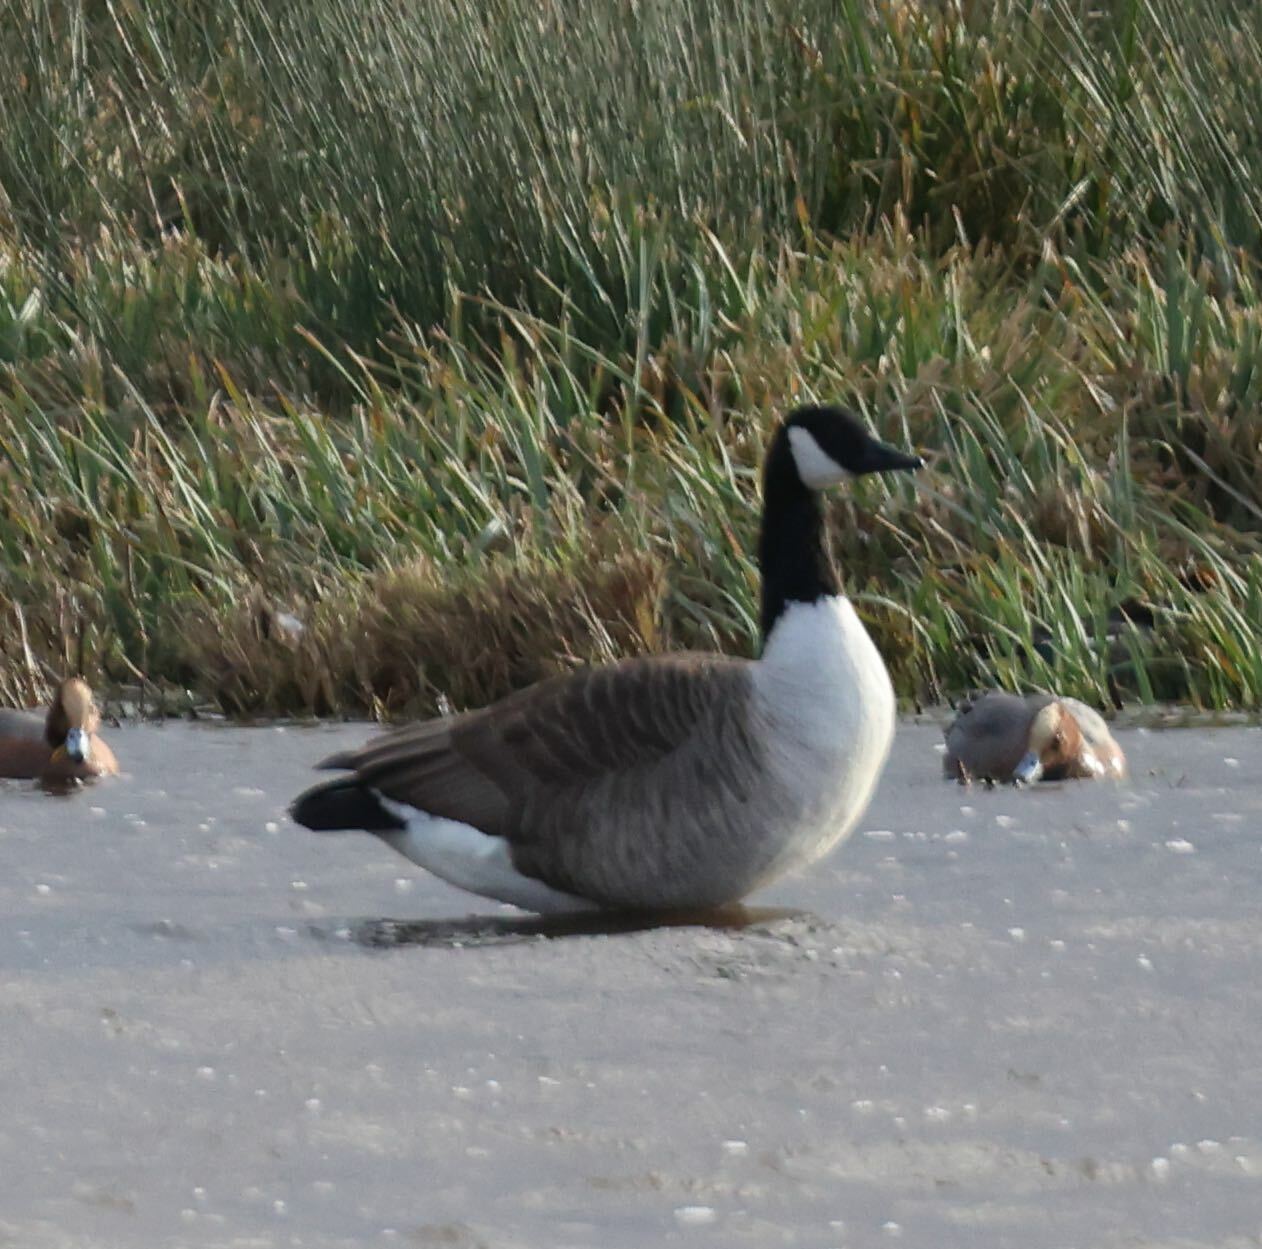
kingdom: Animalia
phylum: Chordata
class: Aves
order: Anseriformes
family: Anatidae
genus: Branta
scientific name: Branta canadensis
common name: Canada goose
